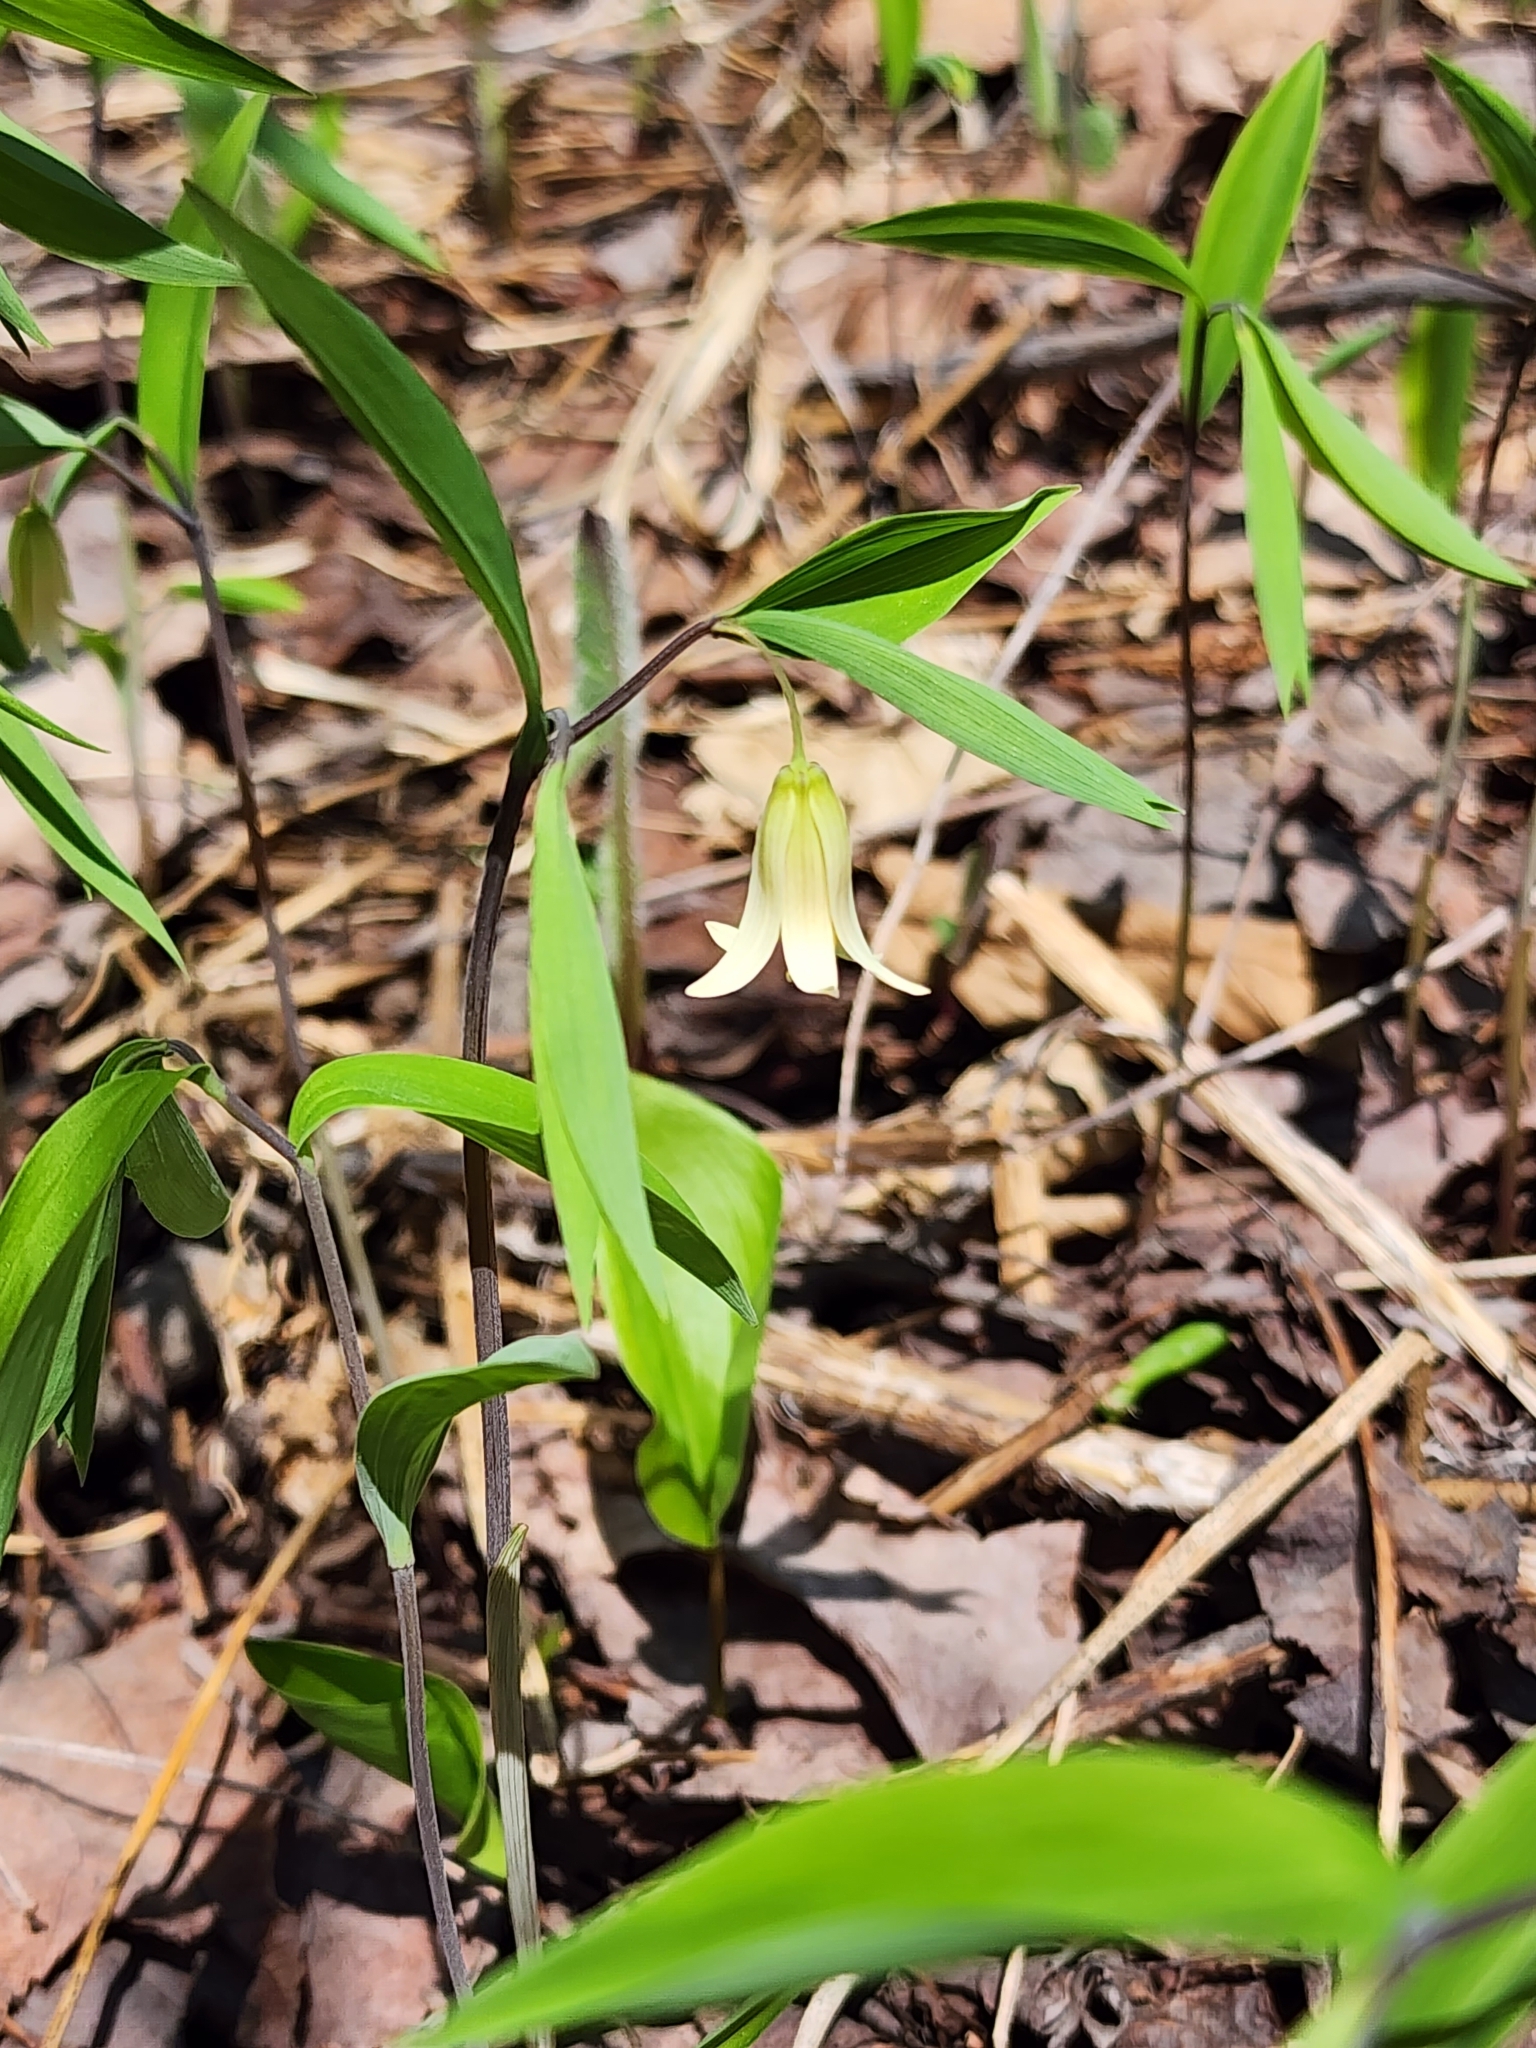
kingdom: Plantae
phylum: Tracheophyta
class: Liliopsida
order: Liliales
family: Colchicaceae
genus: Uvularia
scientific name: Uvularia sessilifolia
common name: Straw-lily
